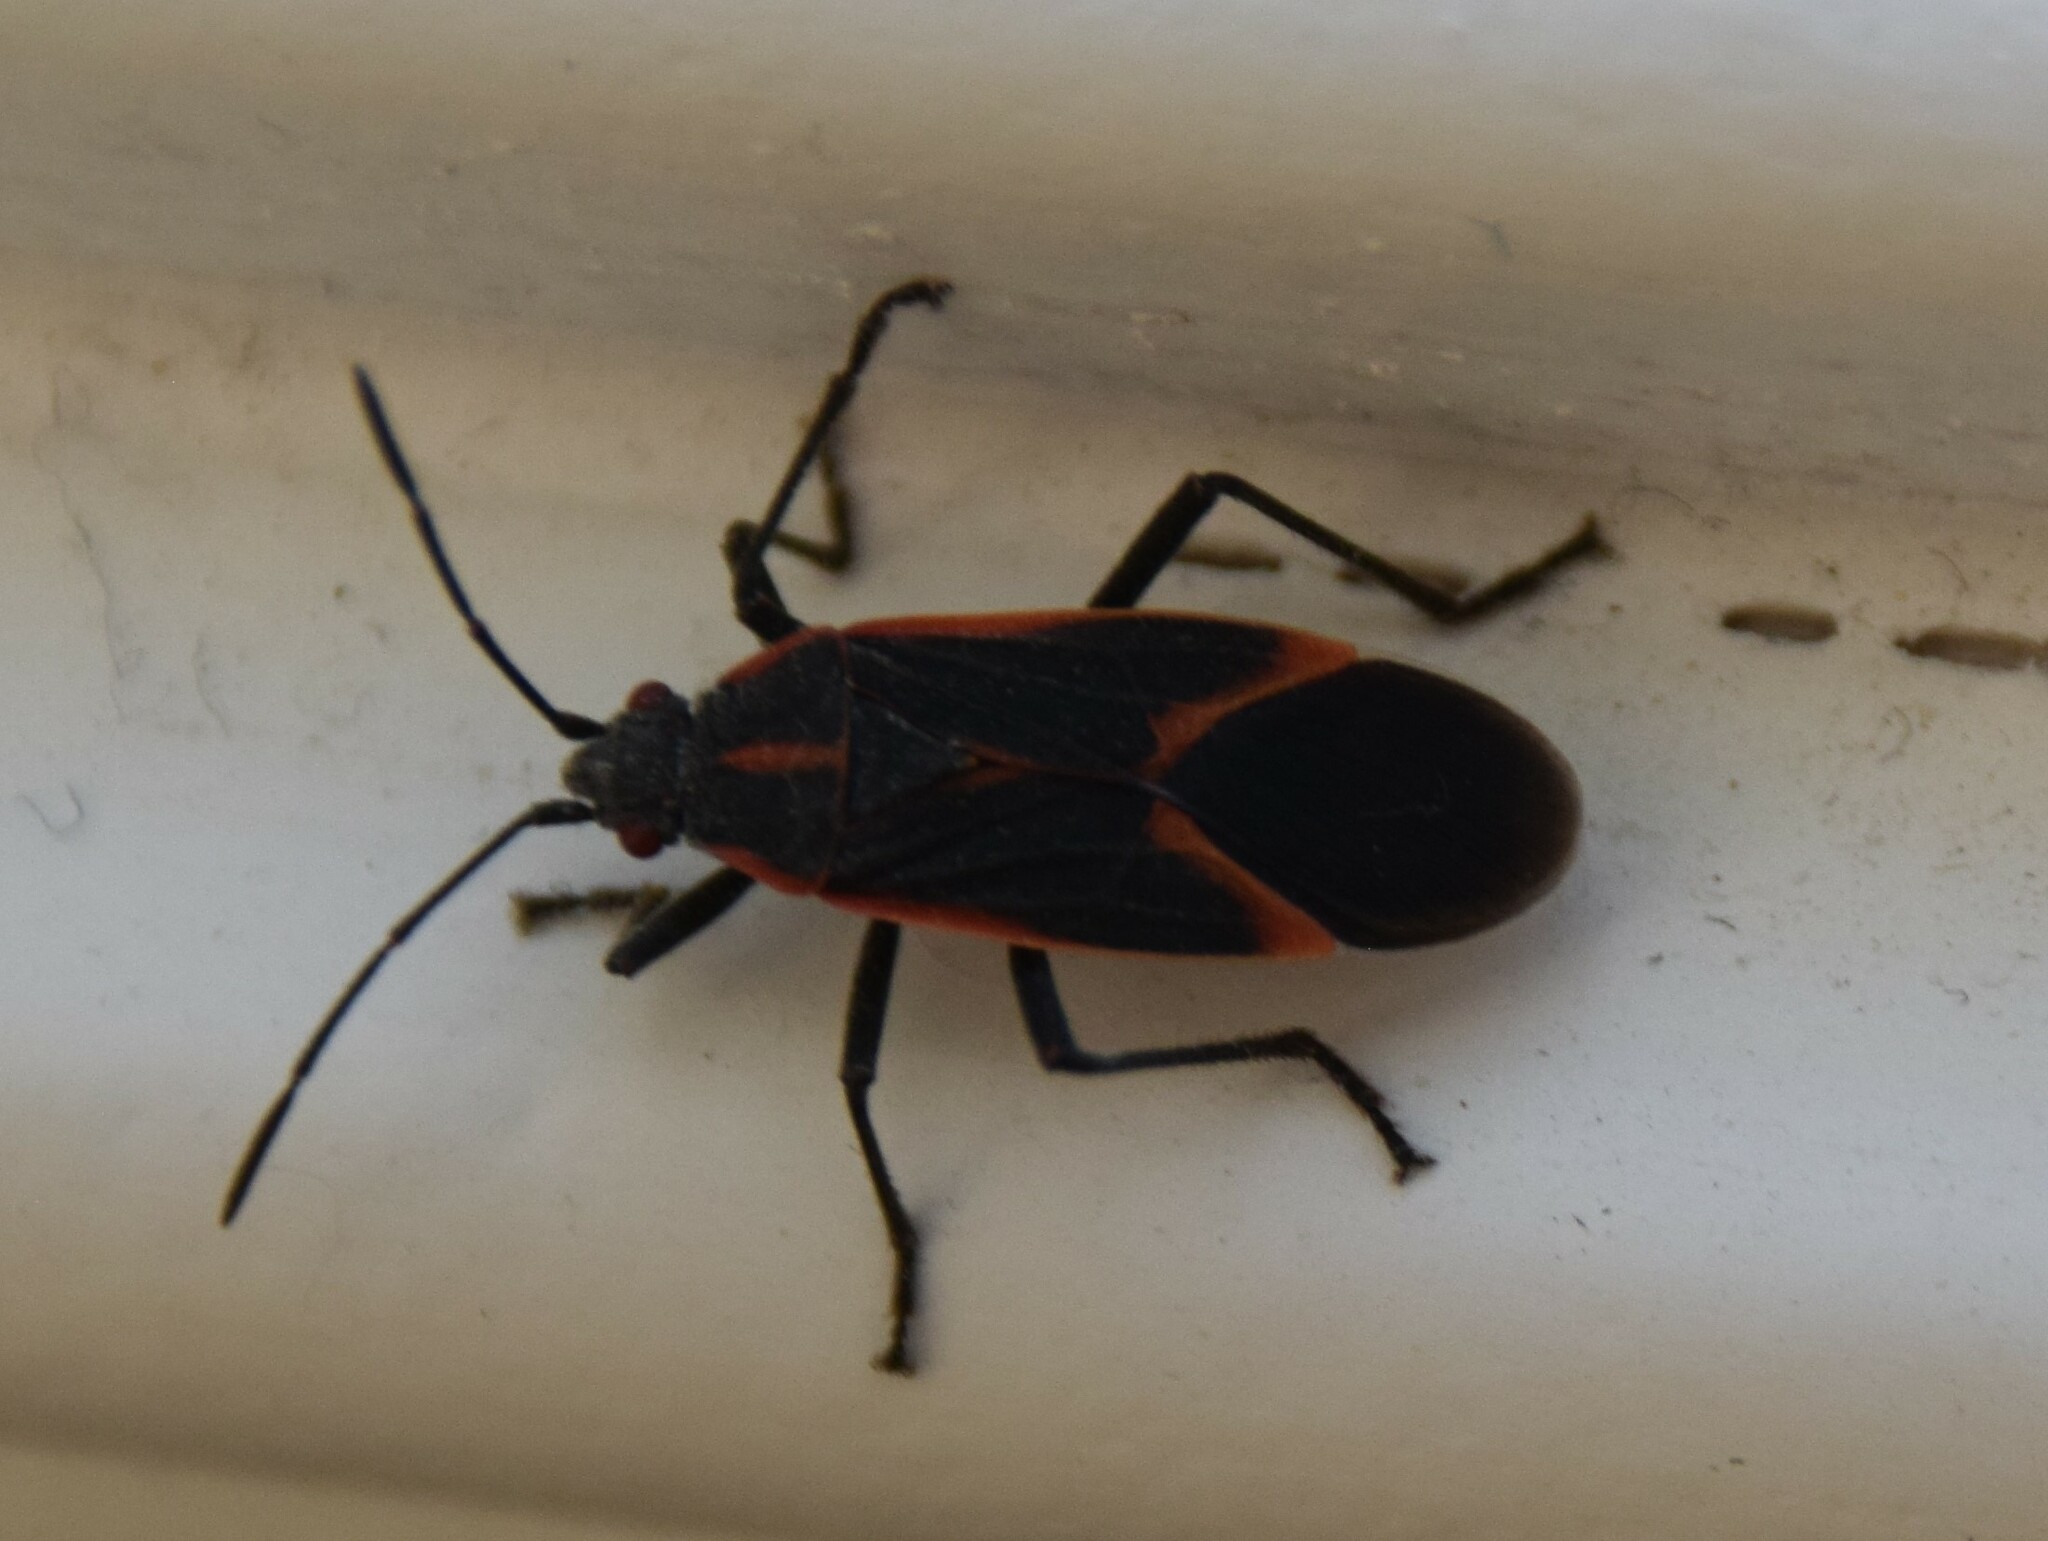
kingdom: Animalia
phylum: Arthropoda
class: Insecta
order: Hemiptera
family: Rhopalidae
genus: Boisea
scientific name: Boisea trivittata
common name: Boxelder bug
